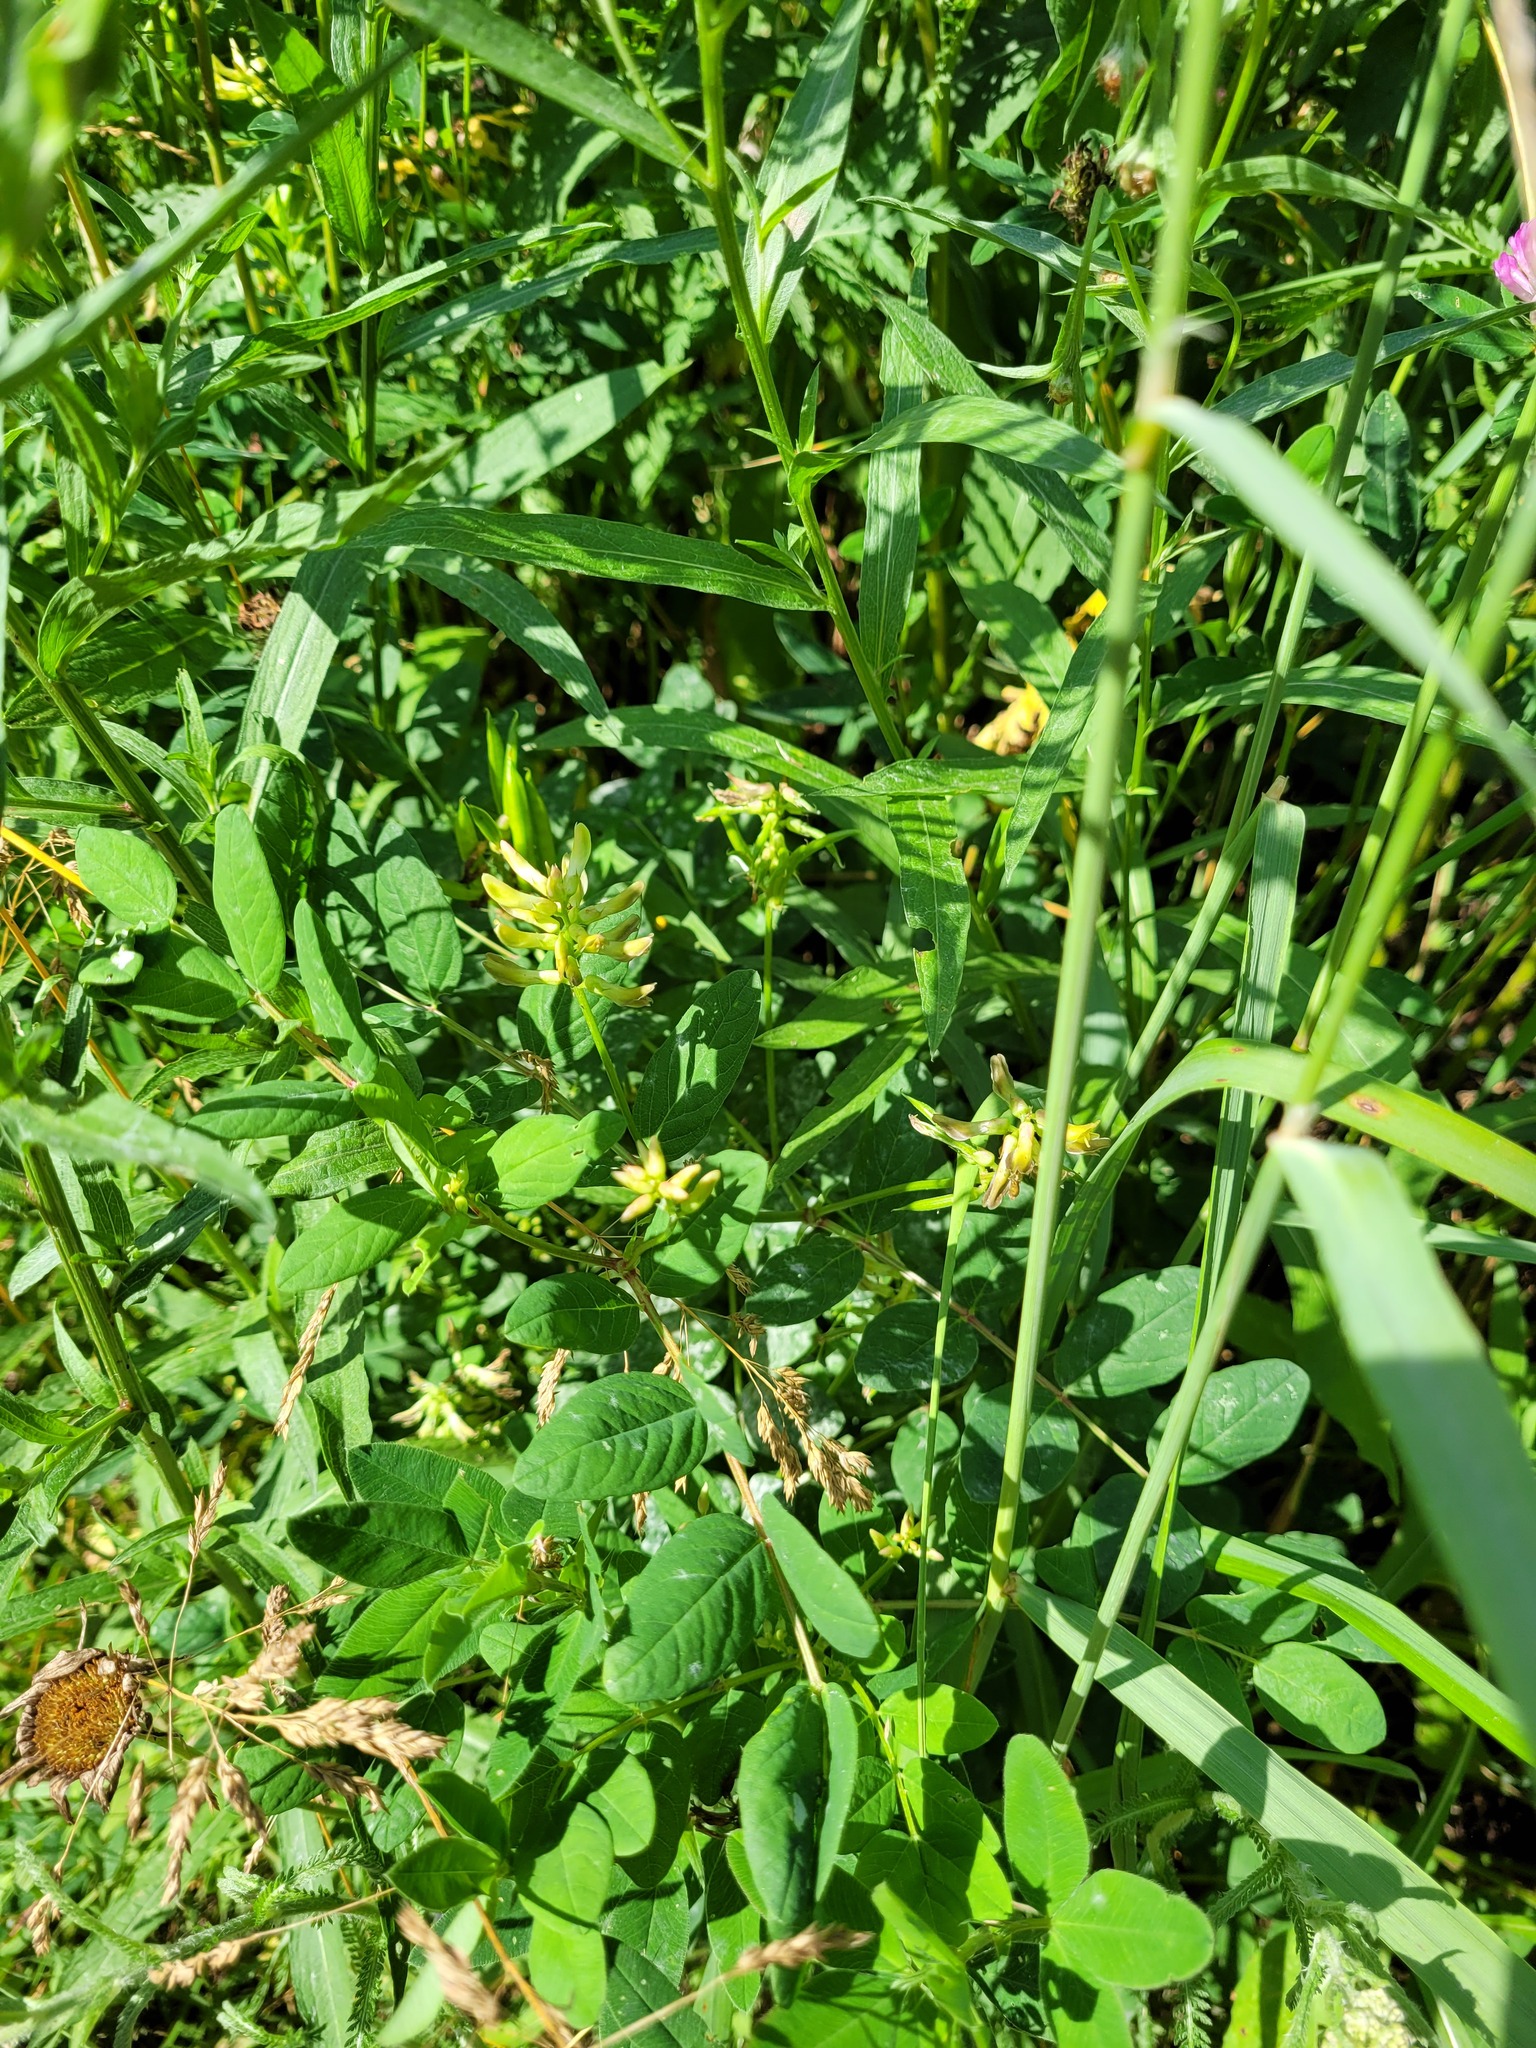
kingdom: Plantae
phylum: Tracheophyta
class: Magnoliopsida
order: Fabales
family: Fabaceae
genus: Astragalus
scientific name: Astragalus glycyphyllos
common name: Wild liquorice
